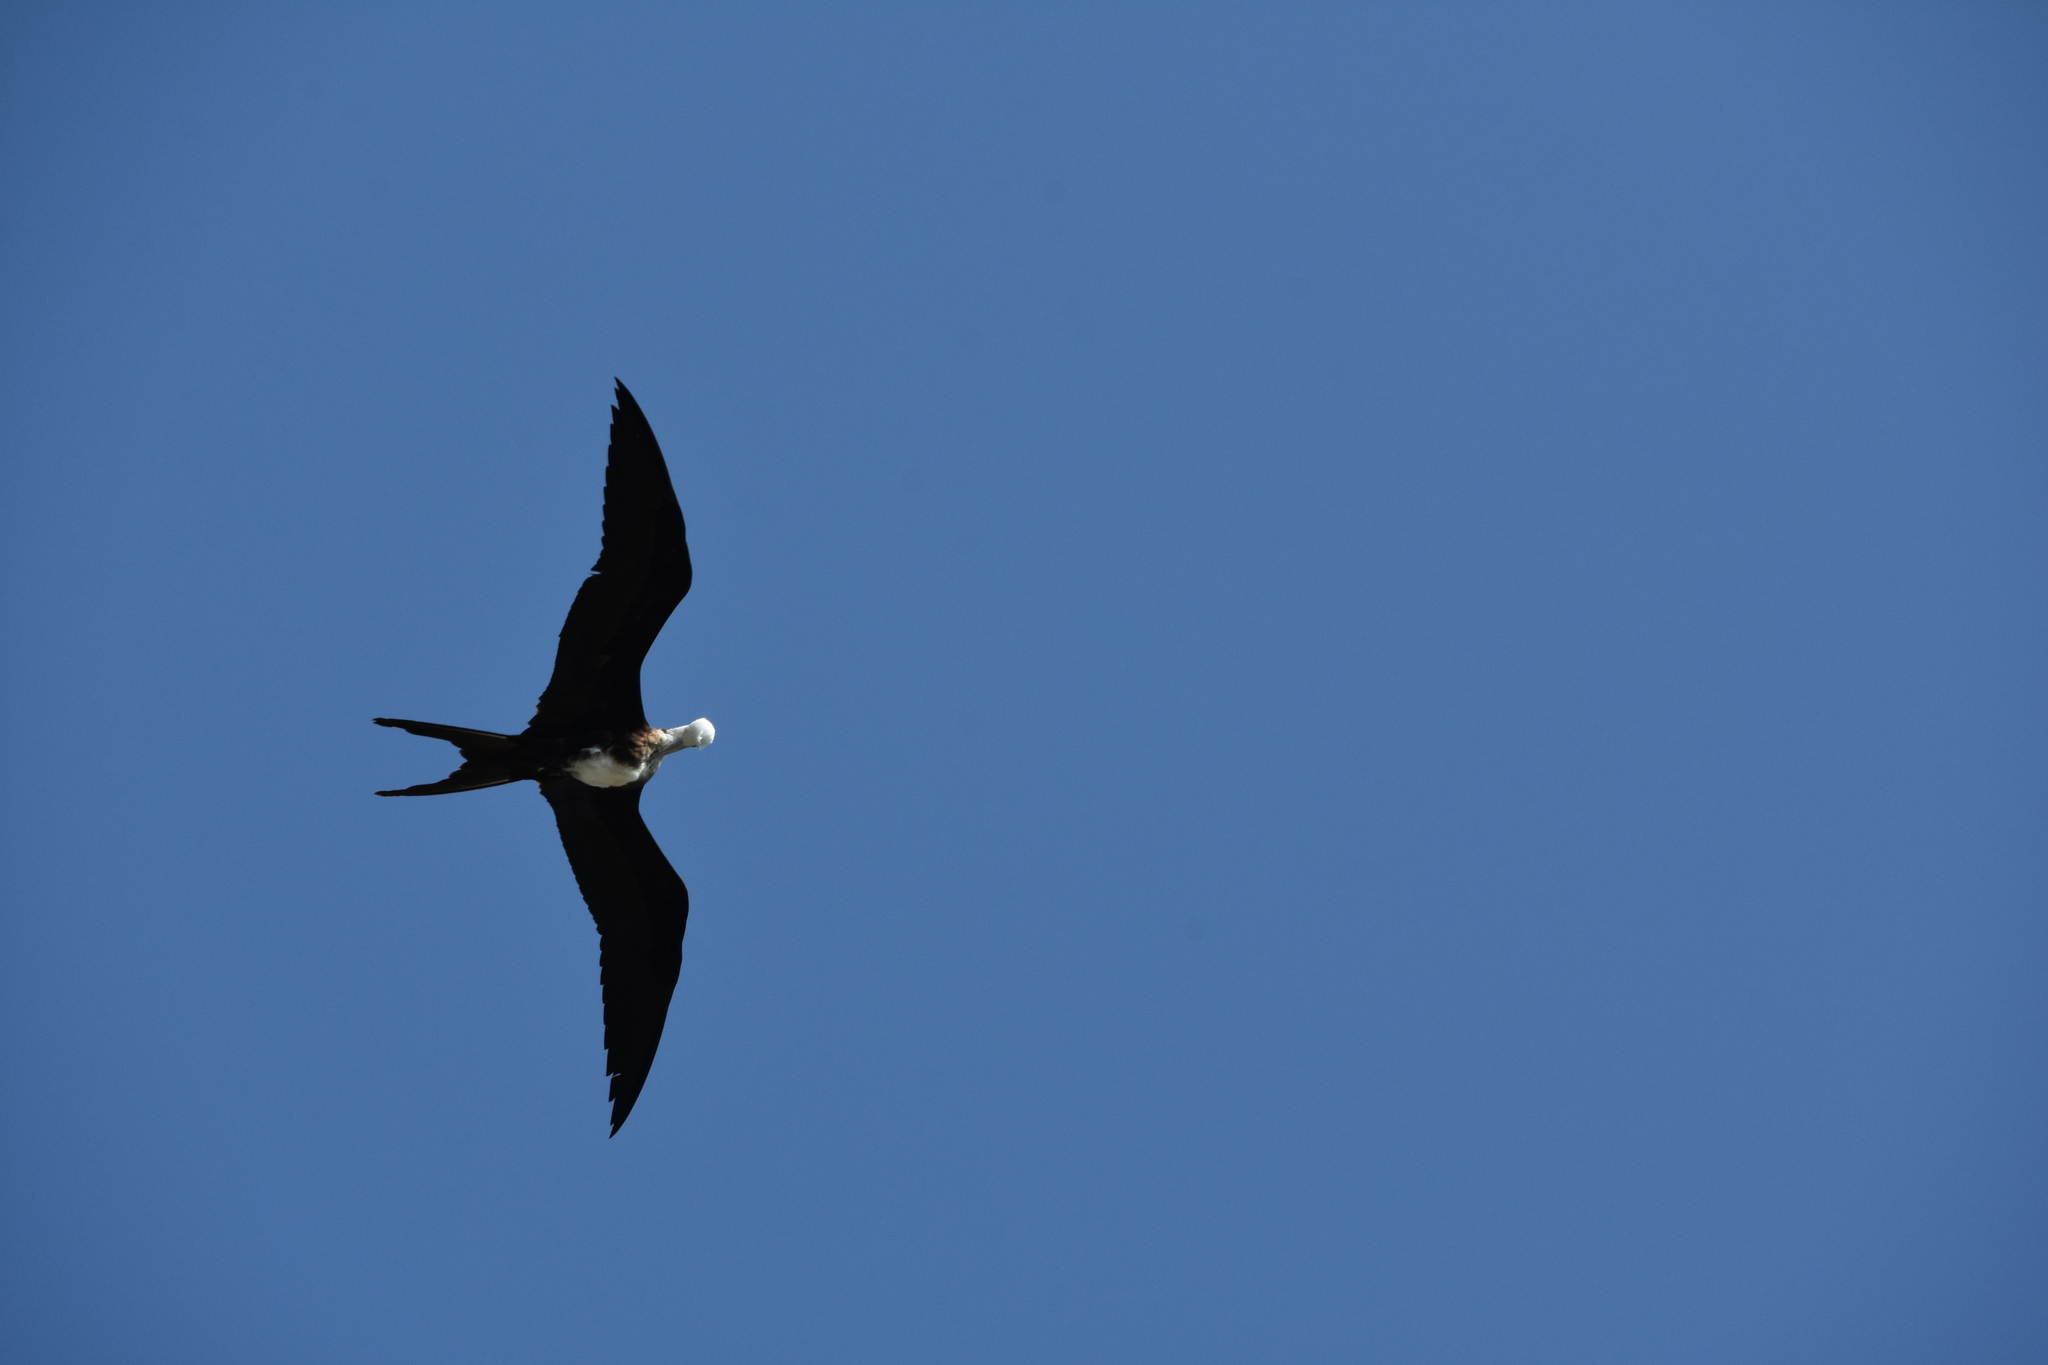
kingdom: Animalia
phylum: Chordata
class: Aves
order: Suliformes
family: Fregatidae
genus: Fregata
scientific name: Fregata magnificens
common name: Magnificent frigatebird
